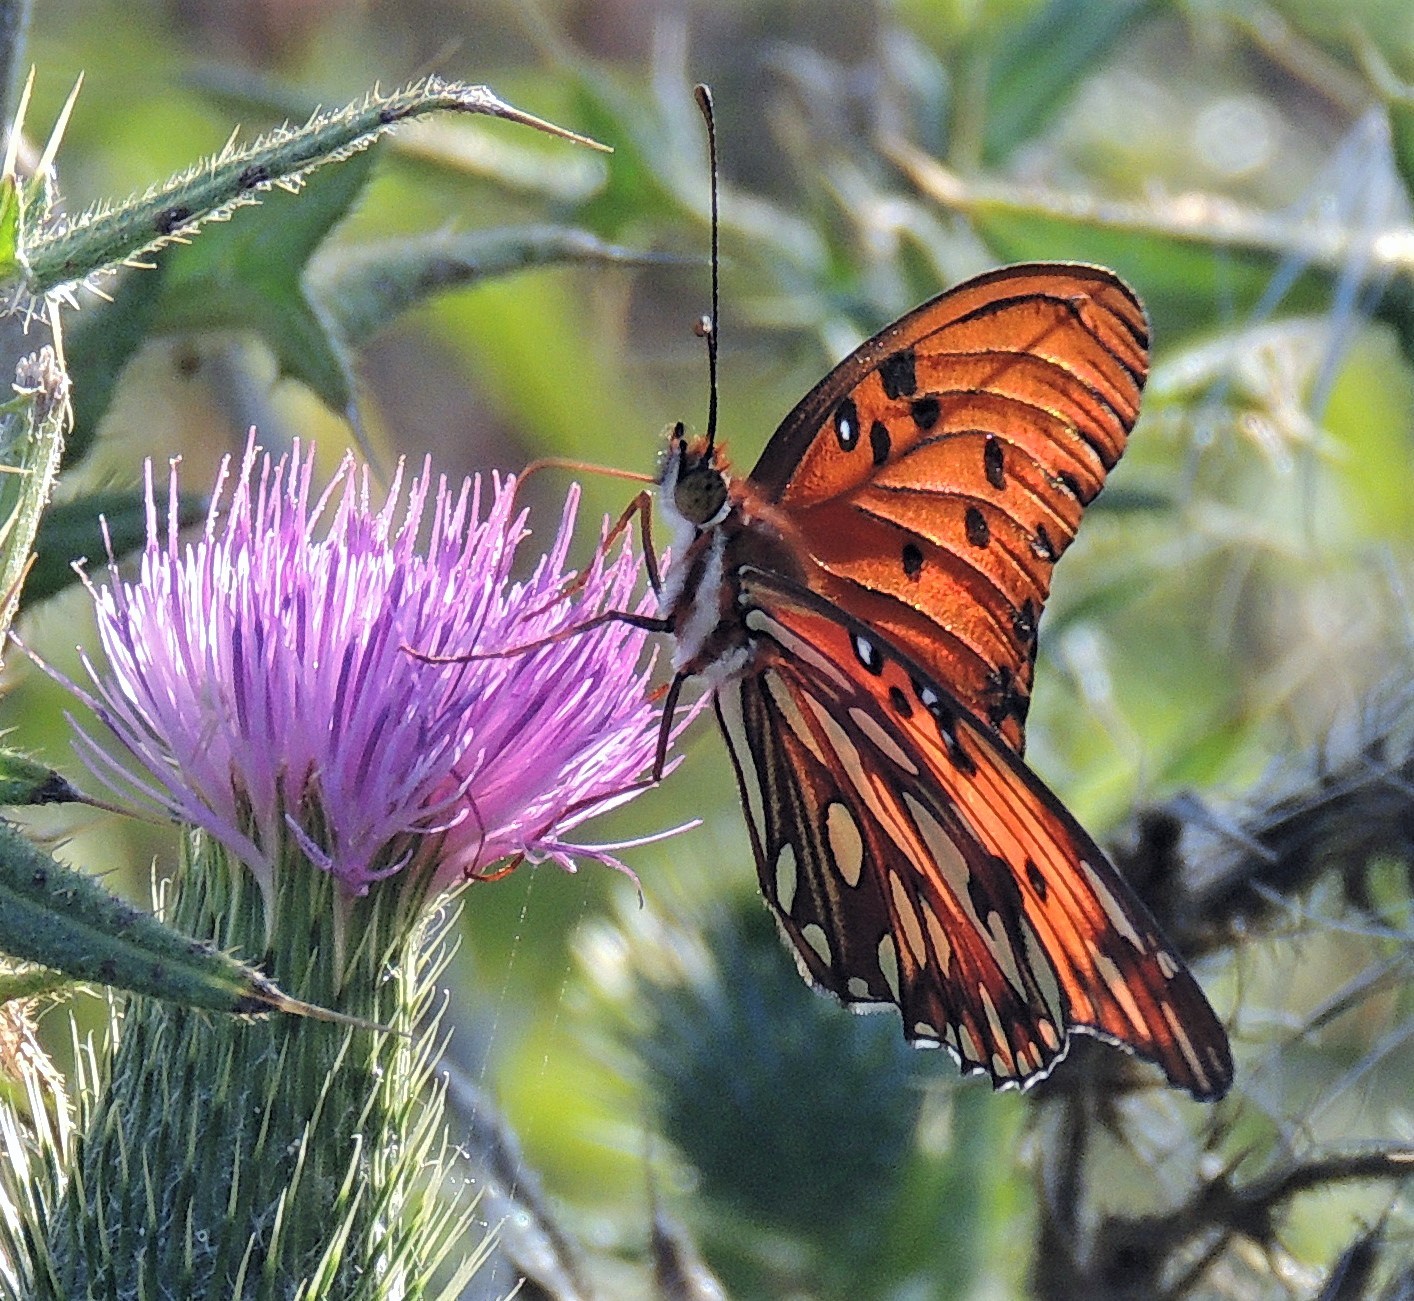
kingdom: Animalia
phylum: Arthropoda
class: Insecta
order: Lepidoptera
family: Nymphalidae
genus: Dione
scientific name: Dione vanillae
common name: Gulf fritillary
